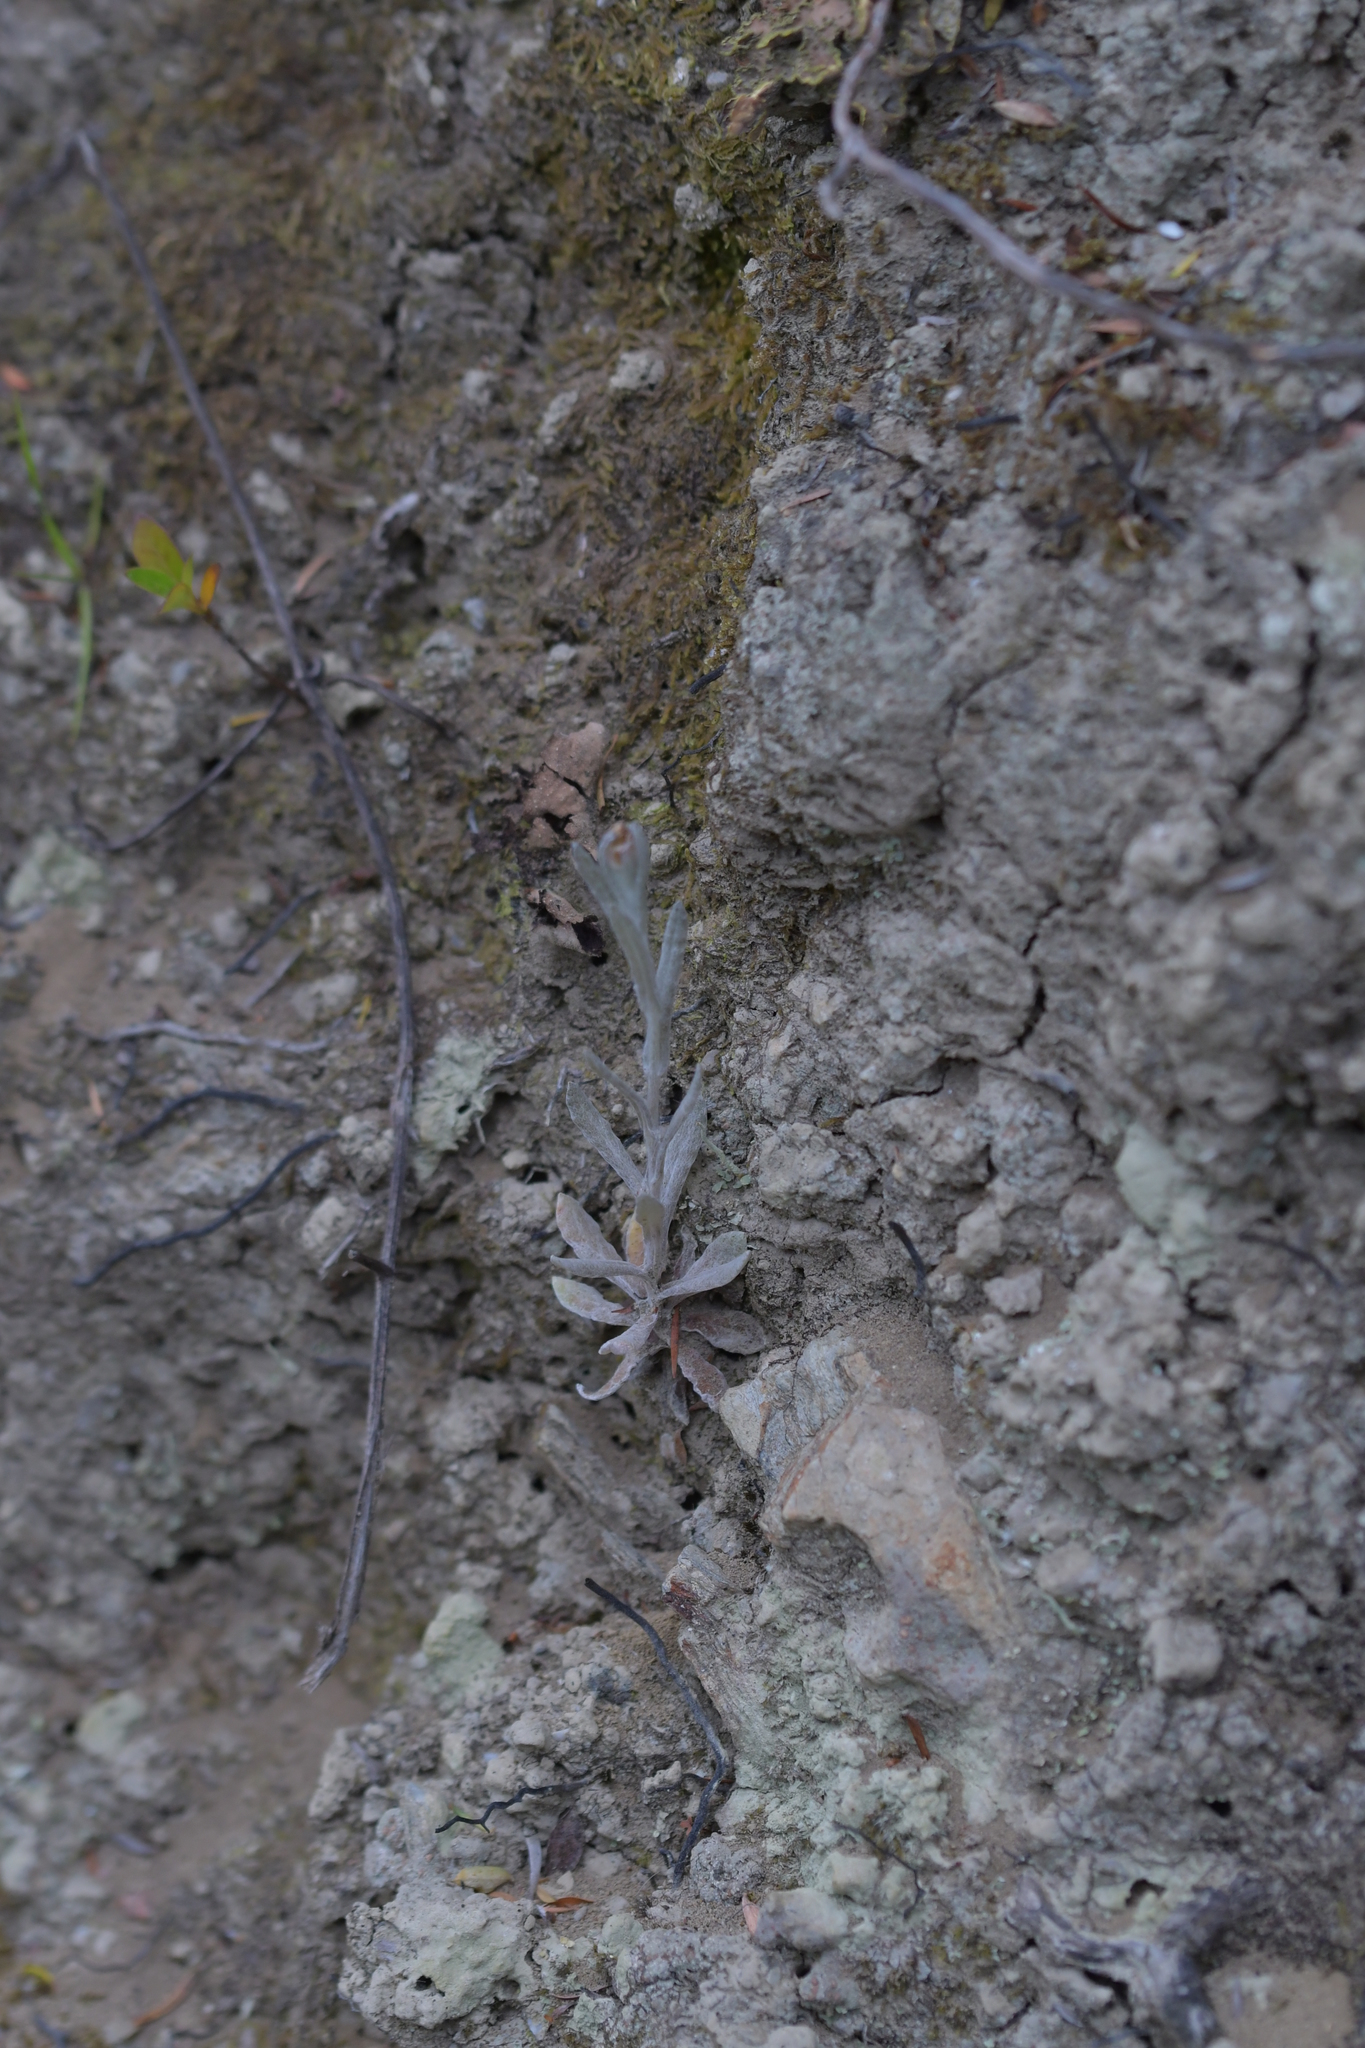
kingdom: Plantae
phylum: Tracheophyta
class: Magnoliopsida
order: Asterales
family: Asteraceae
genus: Helichrysum
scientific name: Helichrysum luteoalbum
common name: Daisy
